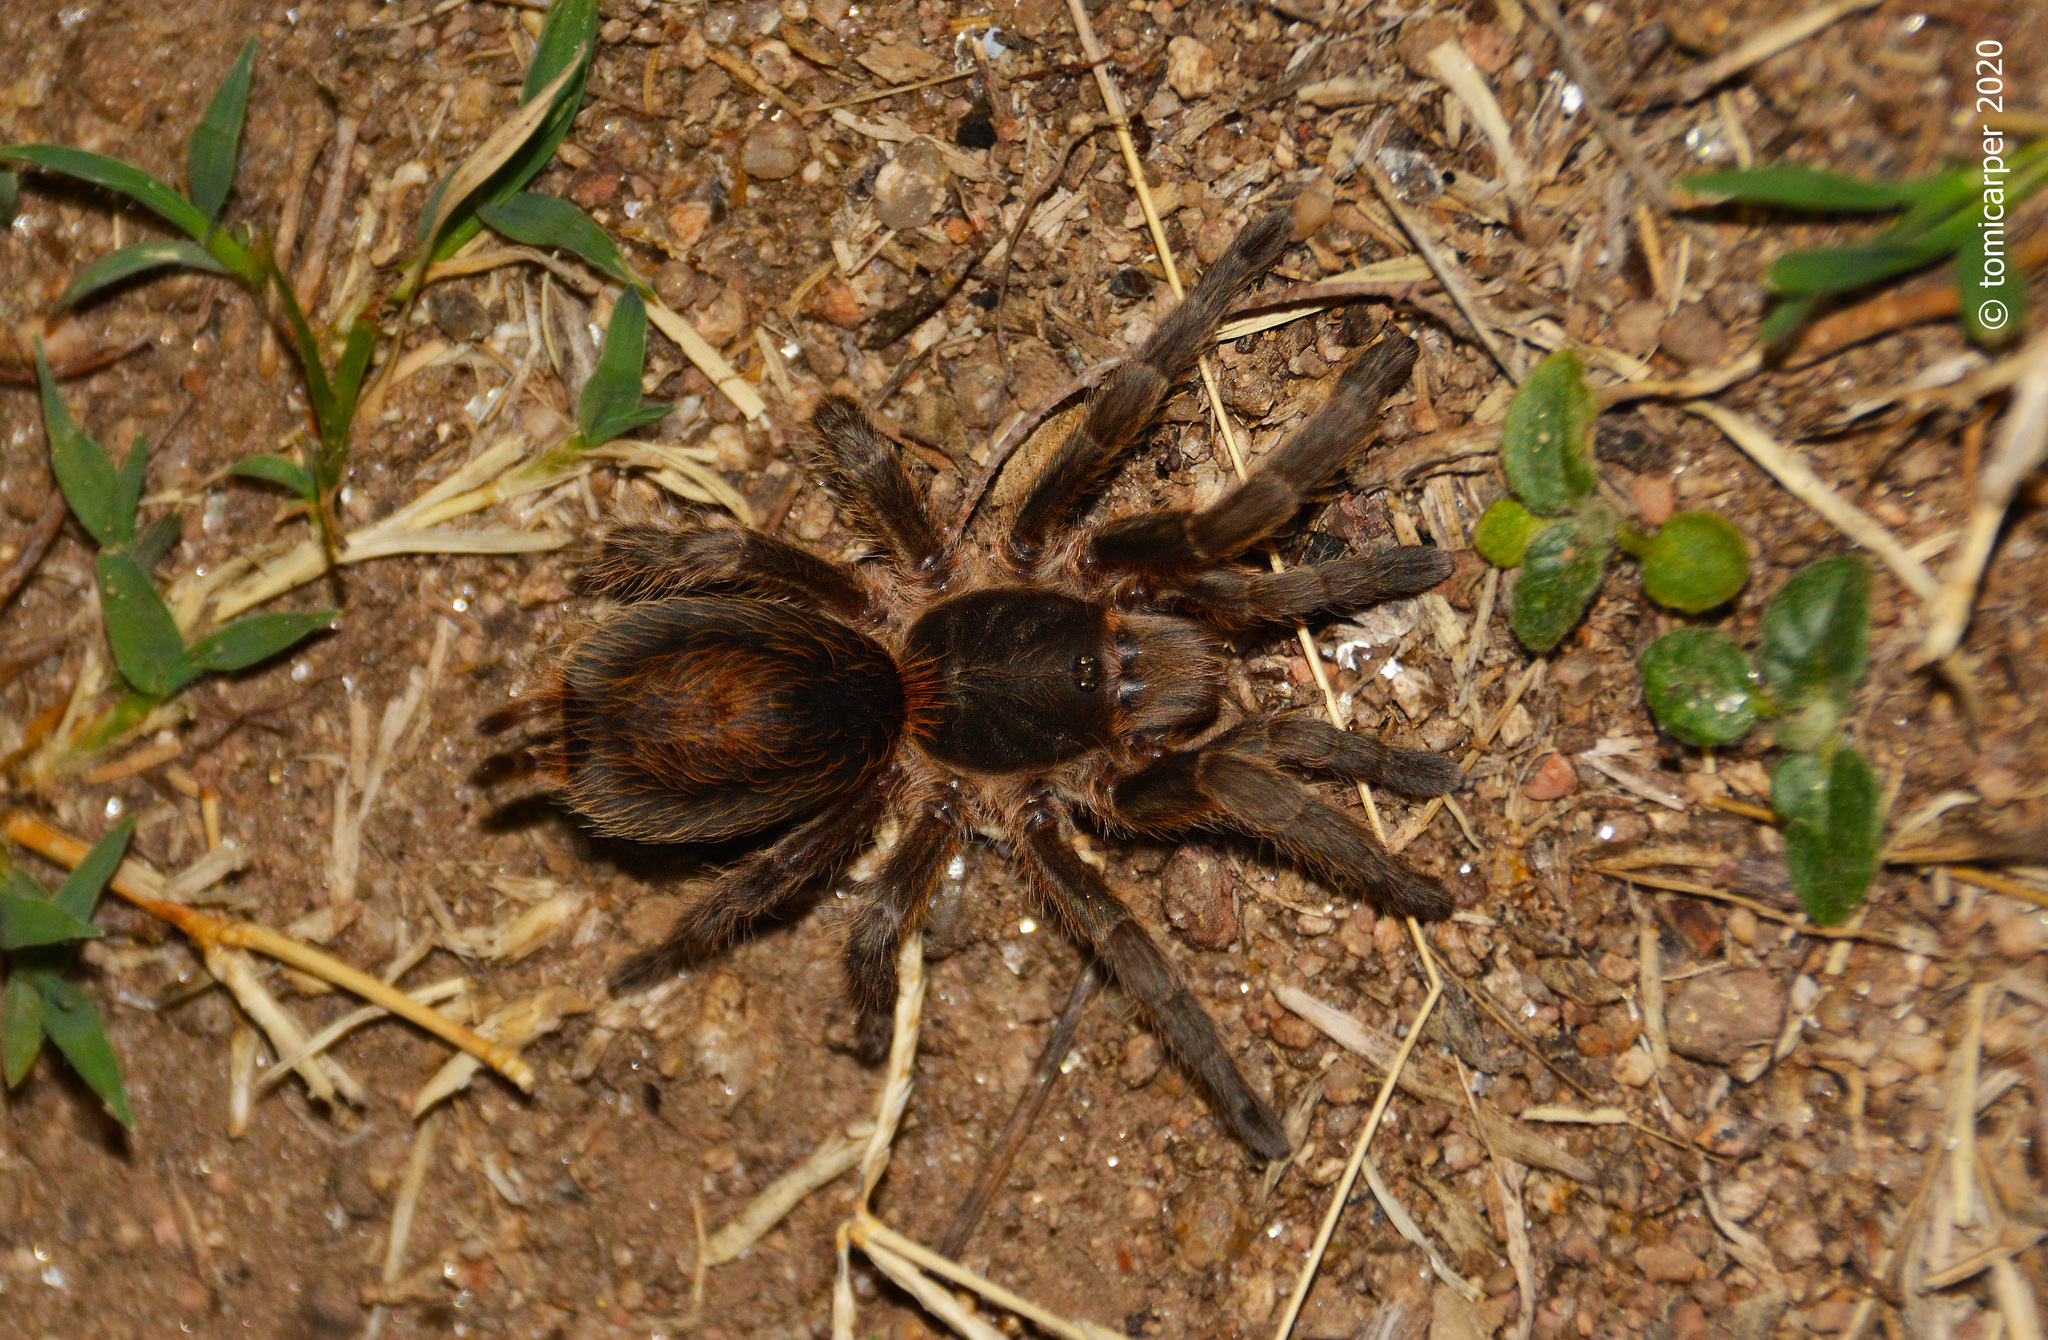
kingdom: Animalia
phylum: Arthropoda
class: Arachnida
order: Araneae
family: Theraphosidae
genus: Plesiopelma
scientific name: Plesiopelma longisternale
